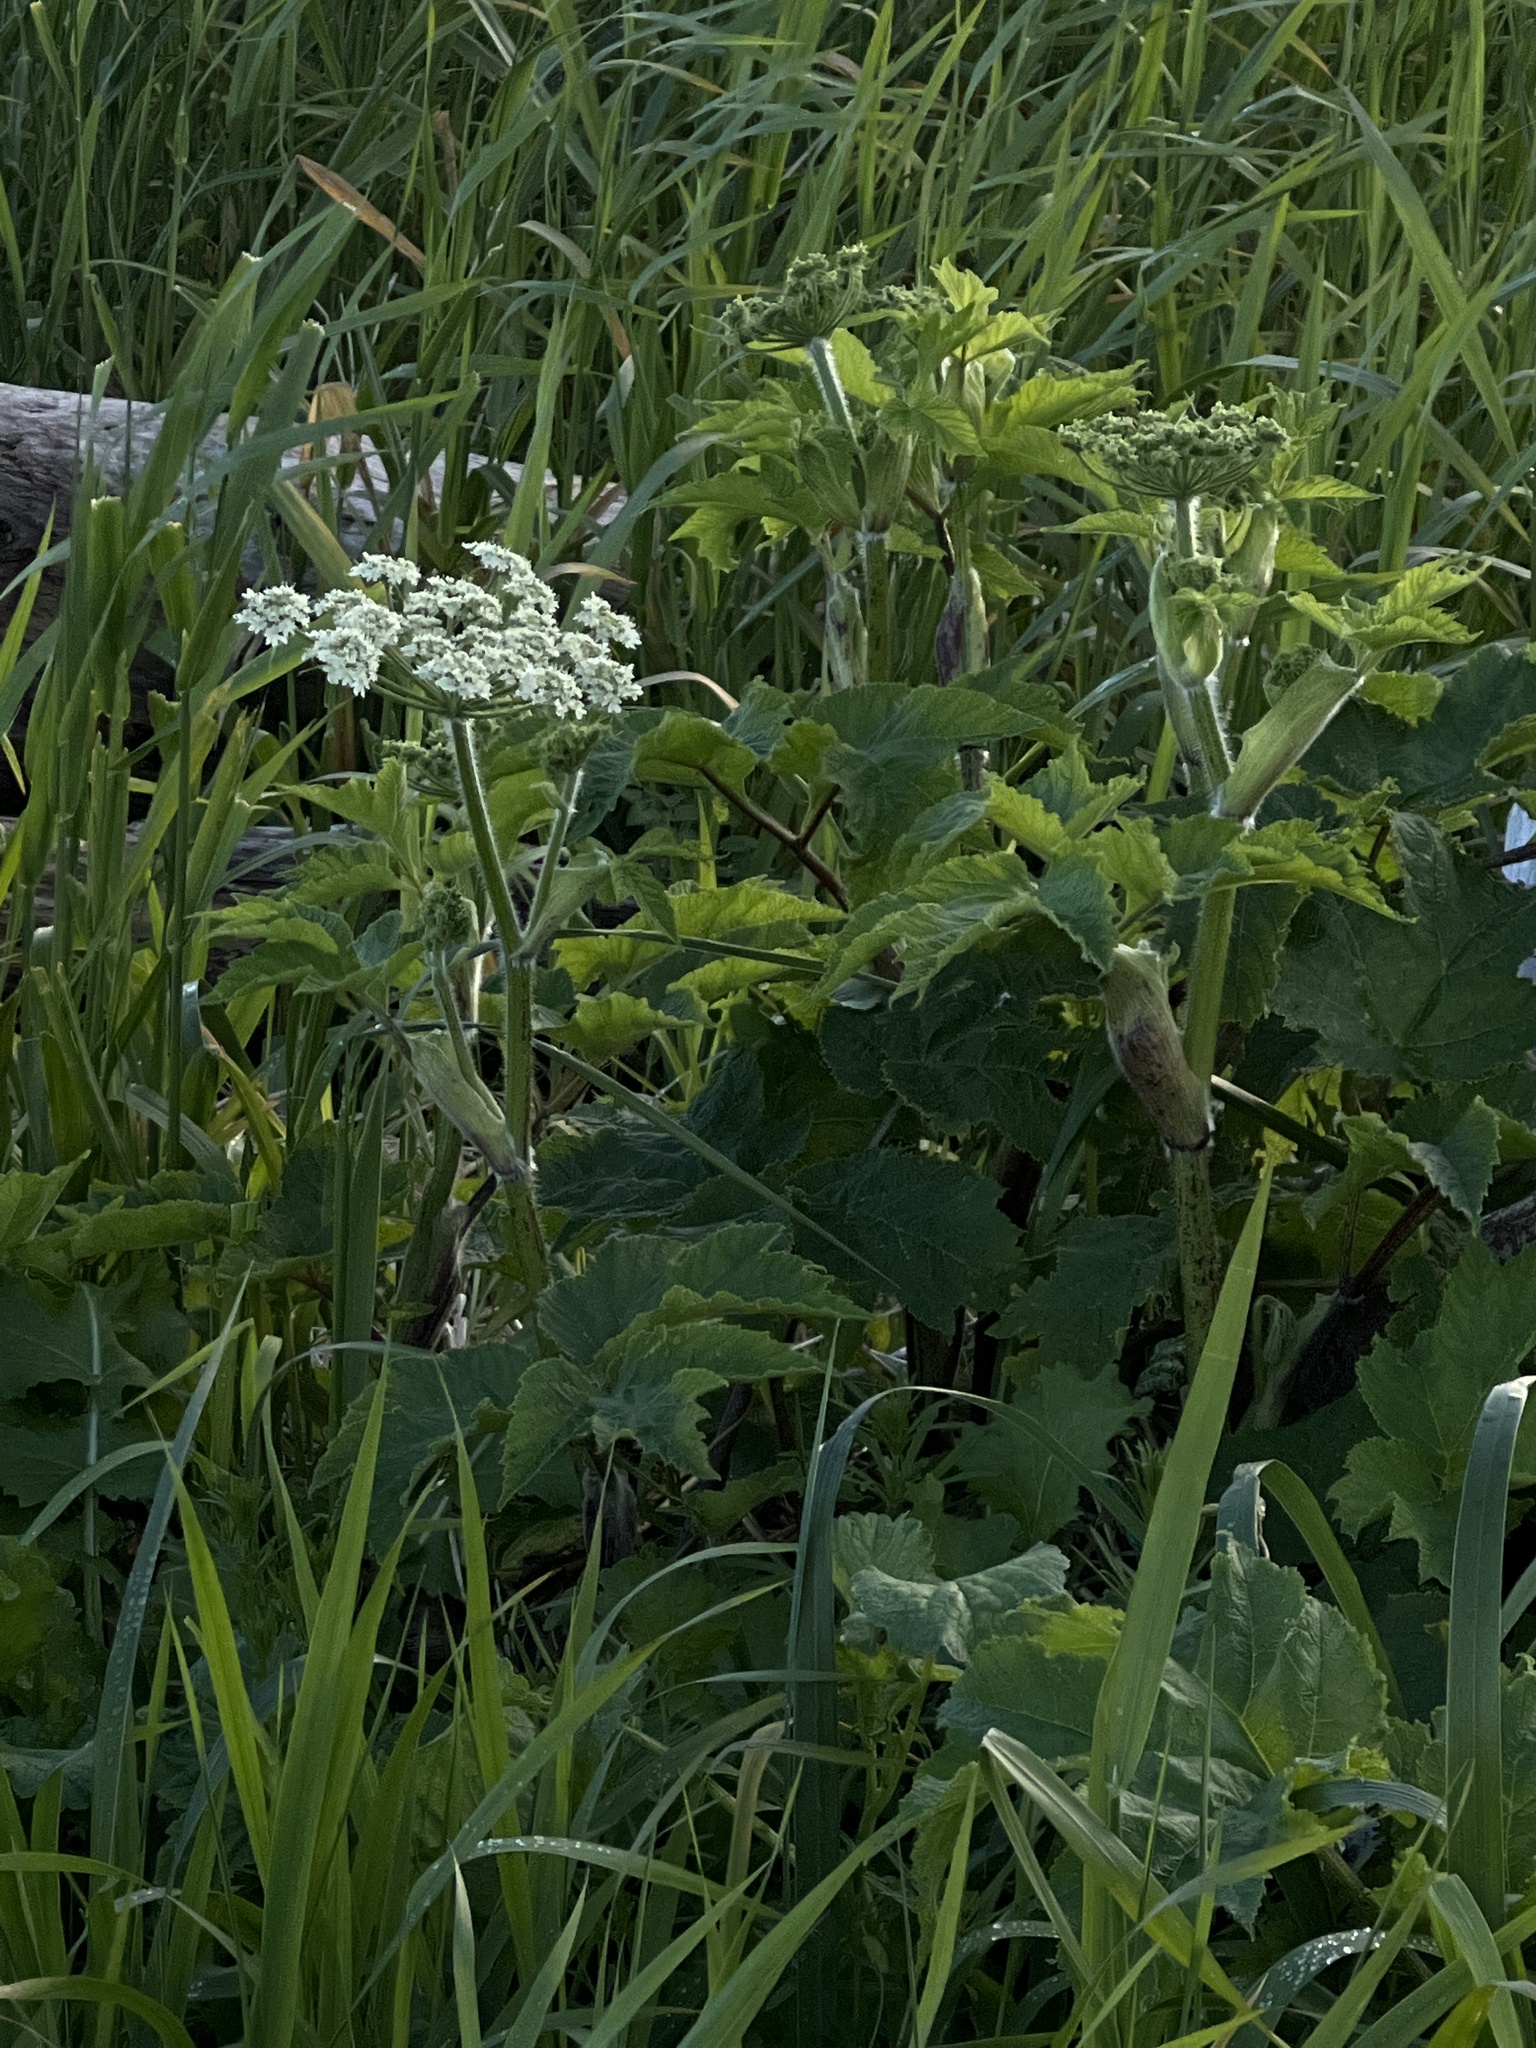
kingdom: Plantae
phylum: Tracheophyta
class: Magnoliopsida
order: Apiales
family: Apiaceae
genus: Heracleum
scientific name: Heracleum maximum
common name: American cow parsnip
